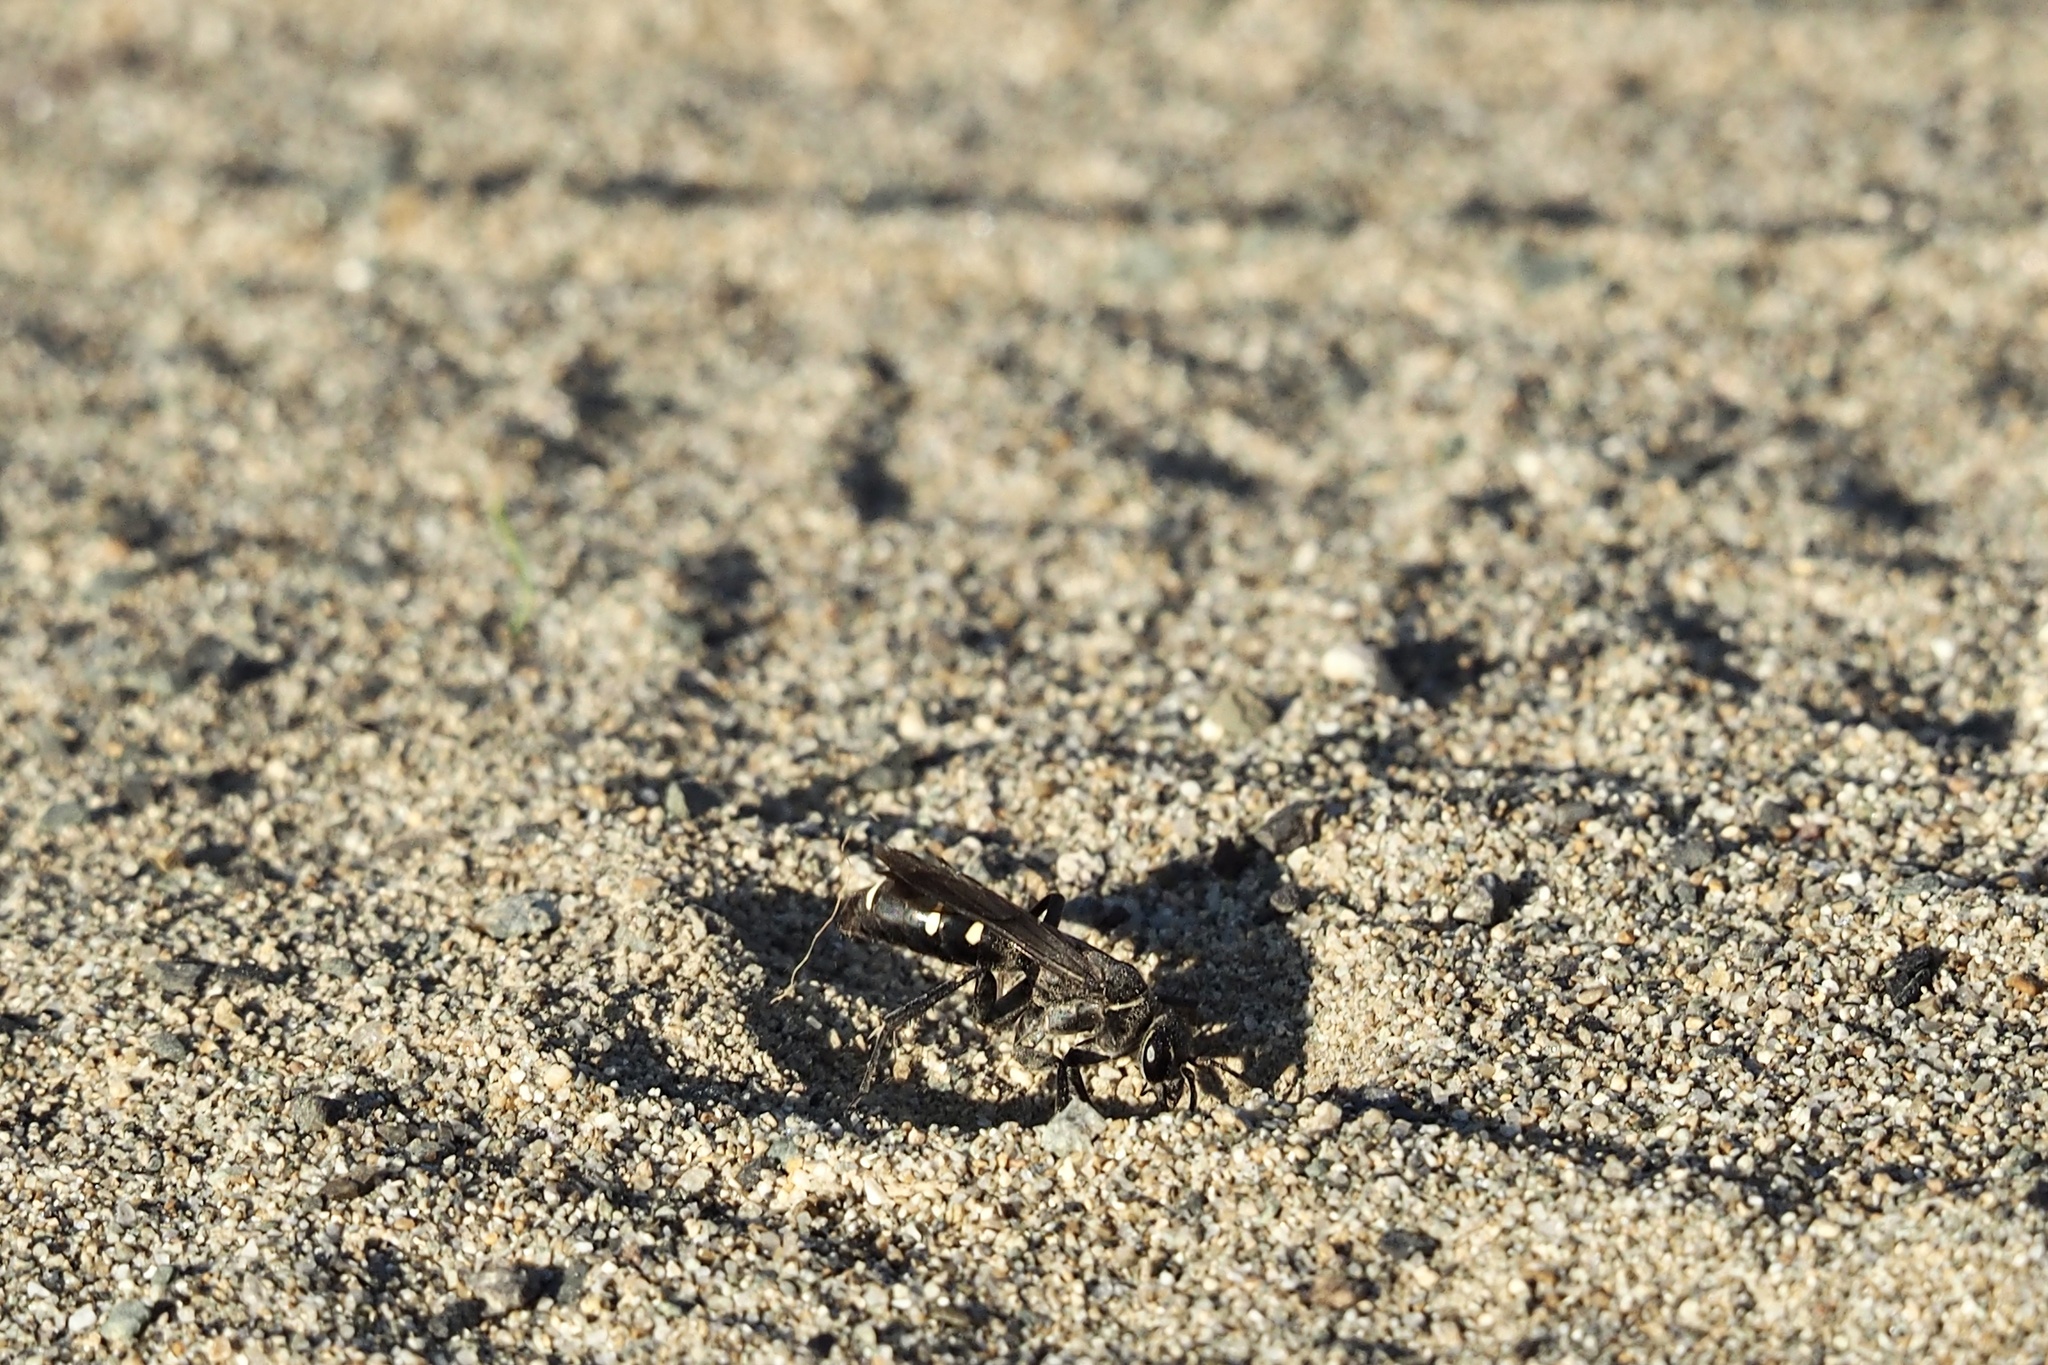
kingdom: Animalia
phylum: Arthropoda
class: Insecta
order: Hymenoptera
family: Pompilidae
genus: Episyron
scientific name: Episyron arrogans
